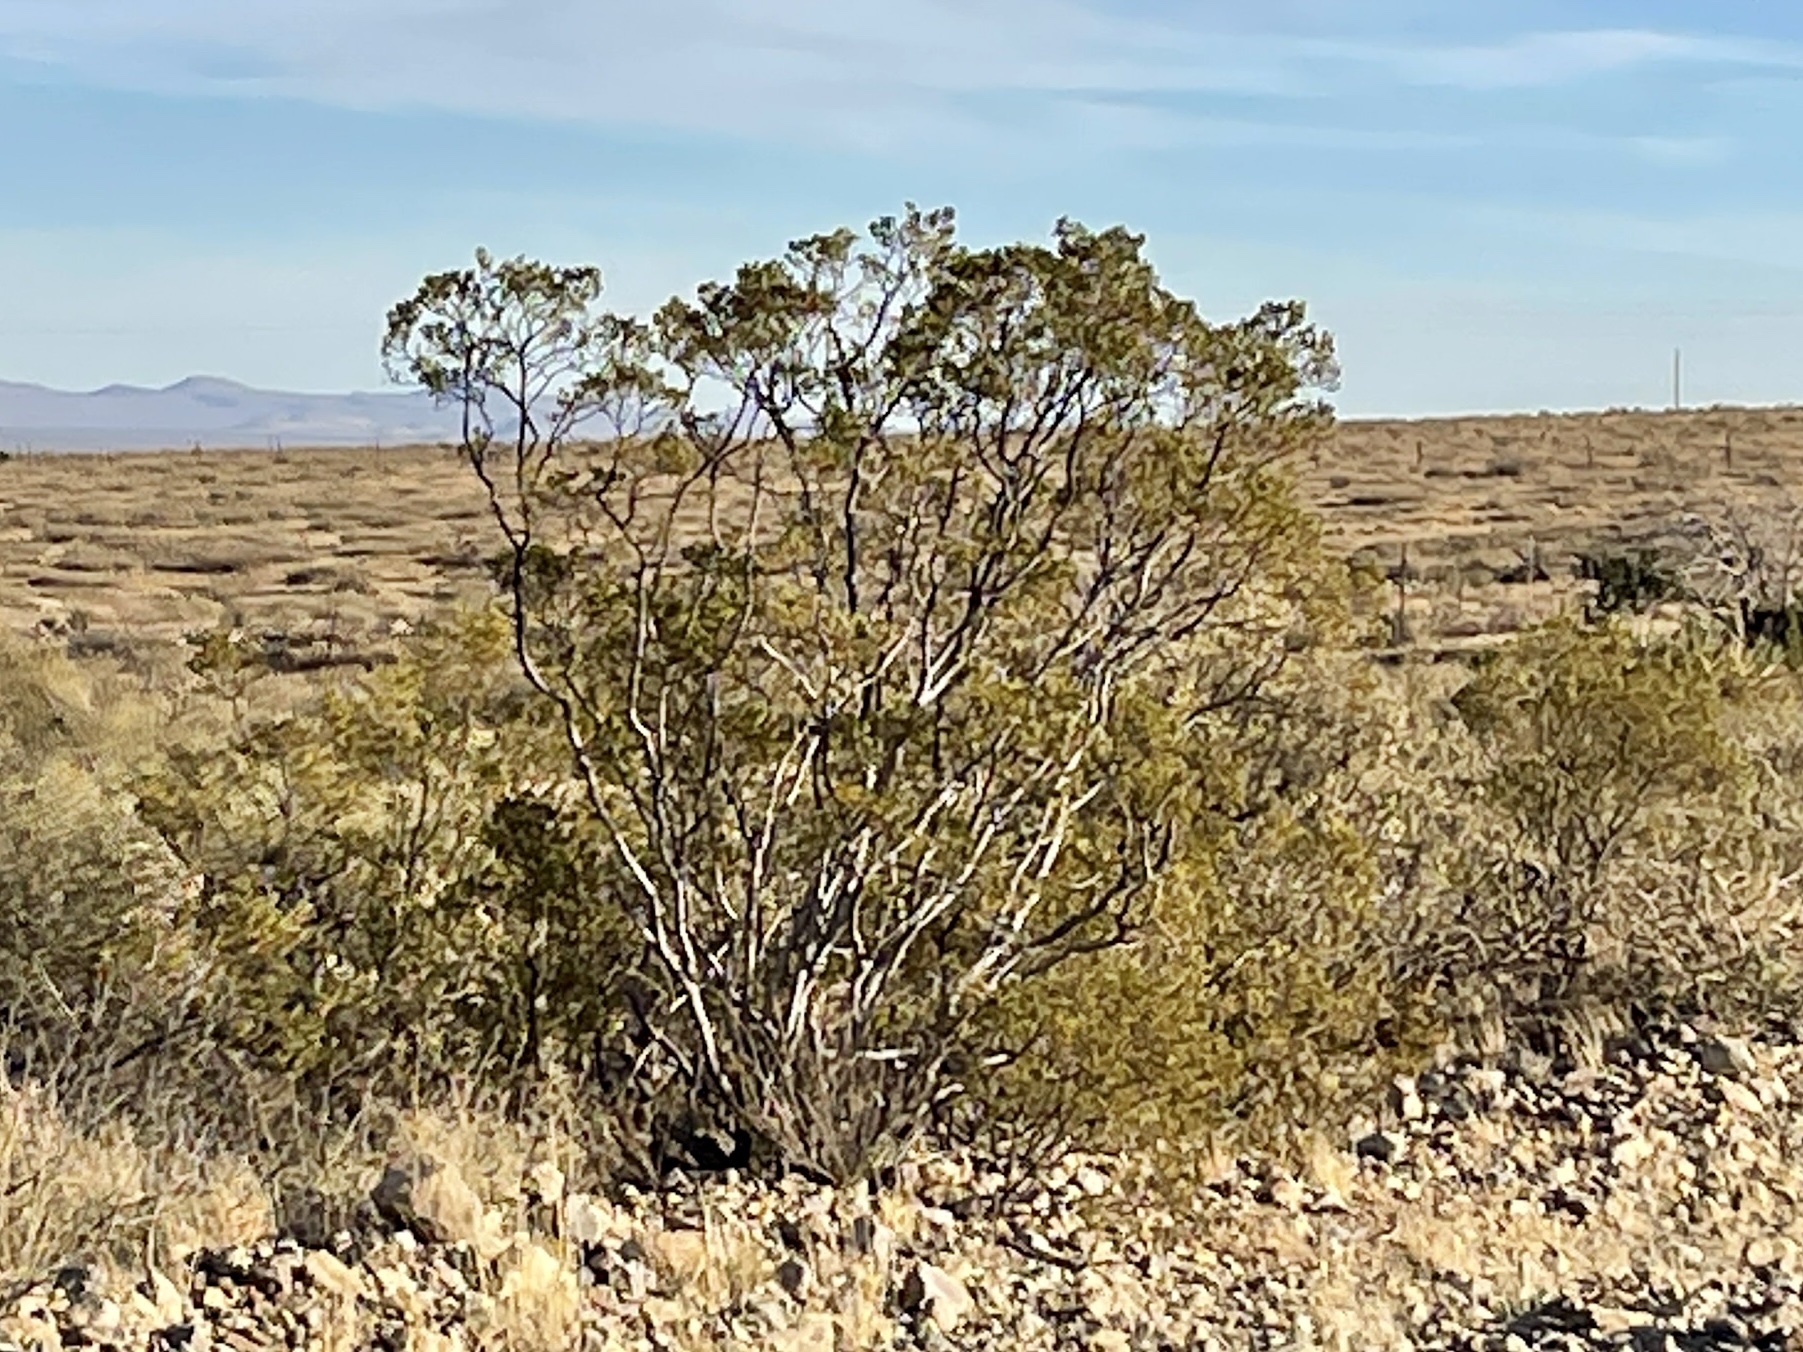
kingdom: Plantae
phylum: Tracheophyta
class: Magnoliopsida
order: Zygophyllales
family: Zygophyllaceae
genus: Larrea
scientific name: Larrea tridentata
